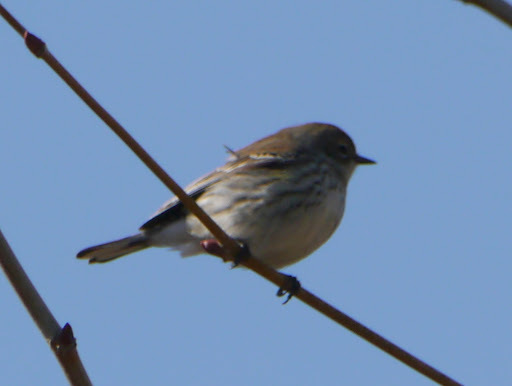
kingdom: Animalia
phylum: Chordata
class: Aves
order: Passeriformes
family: Parulidae
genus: Setophaga
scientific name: Setophaga coronata
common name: Myrtle warbler
